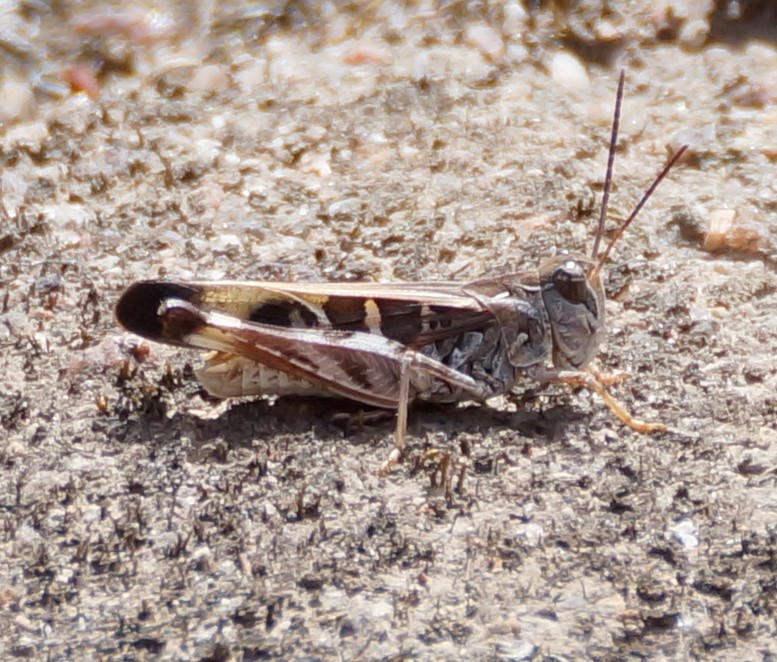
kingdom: Animalia
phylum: Arthropoda
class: Insecta
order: Orthoptera
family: Acrididae
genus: Oedaleus
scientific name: Oedaleus australis
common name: Eastern oedaleus
